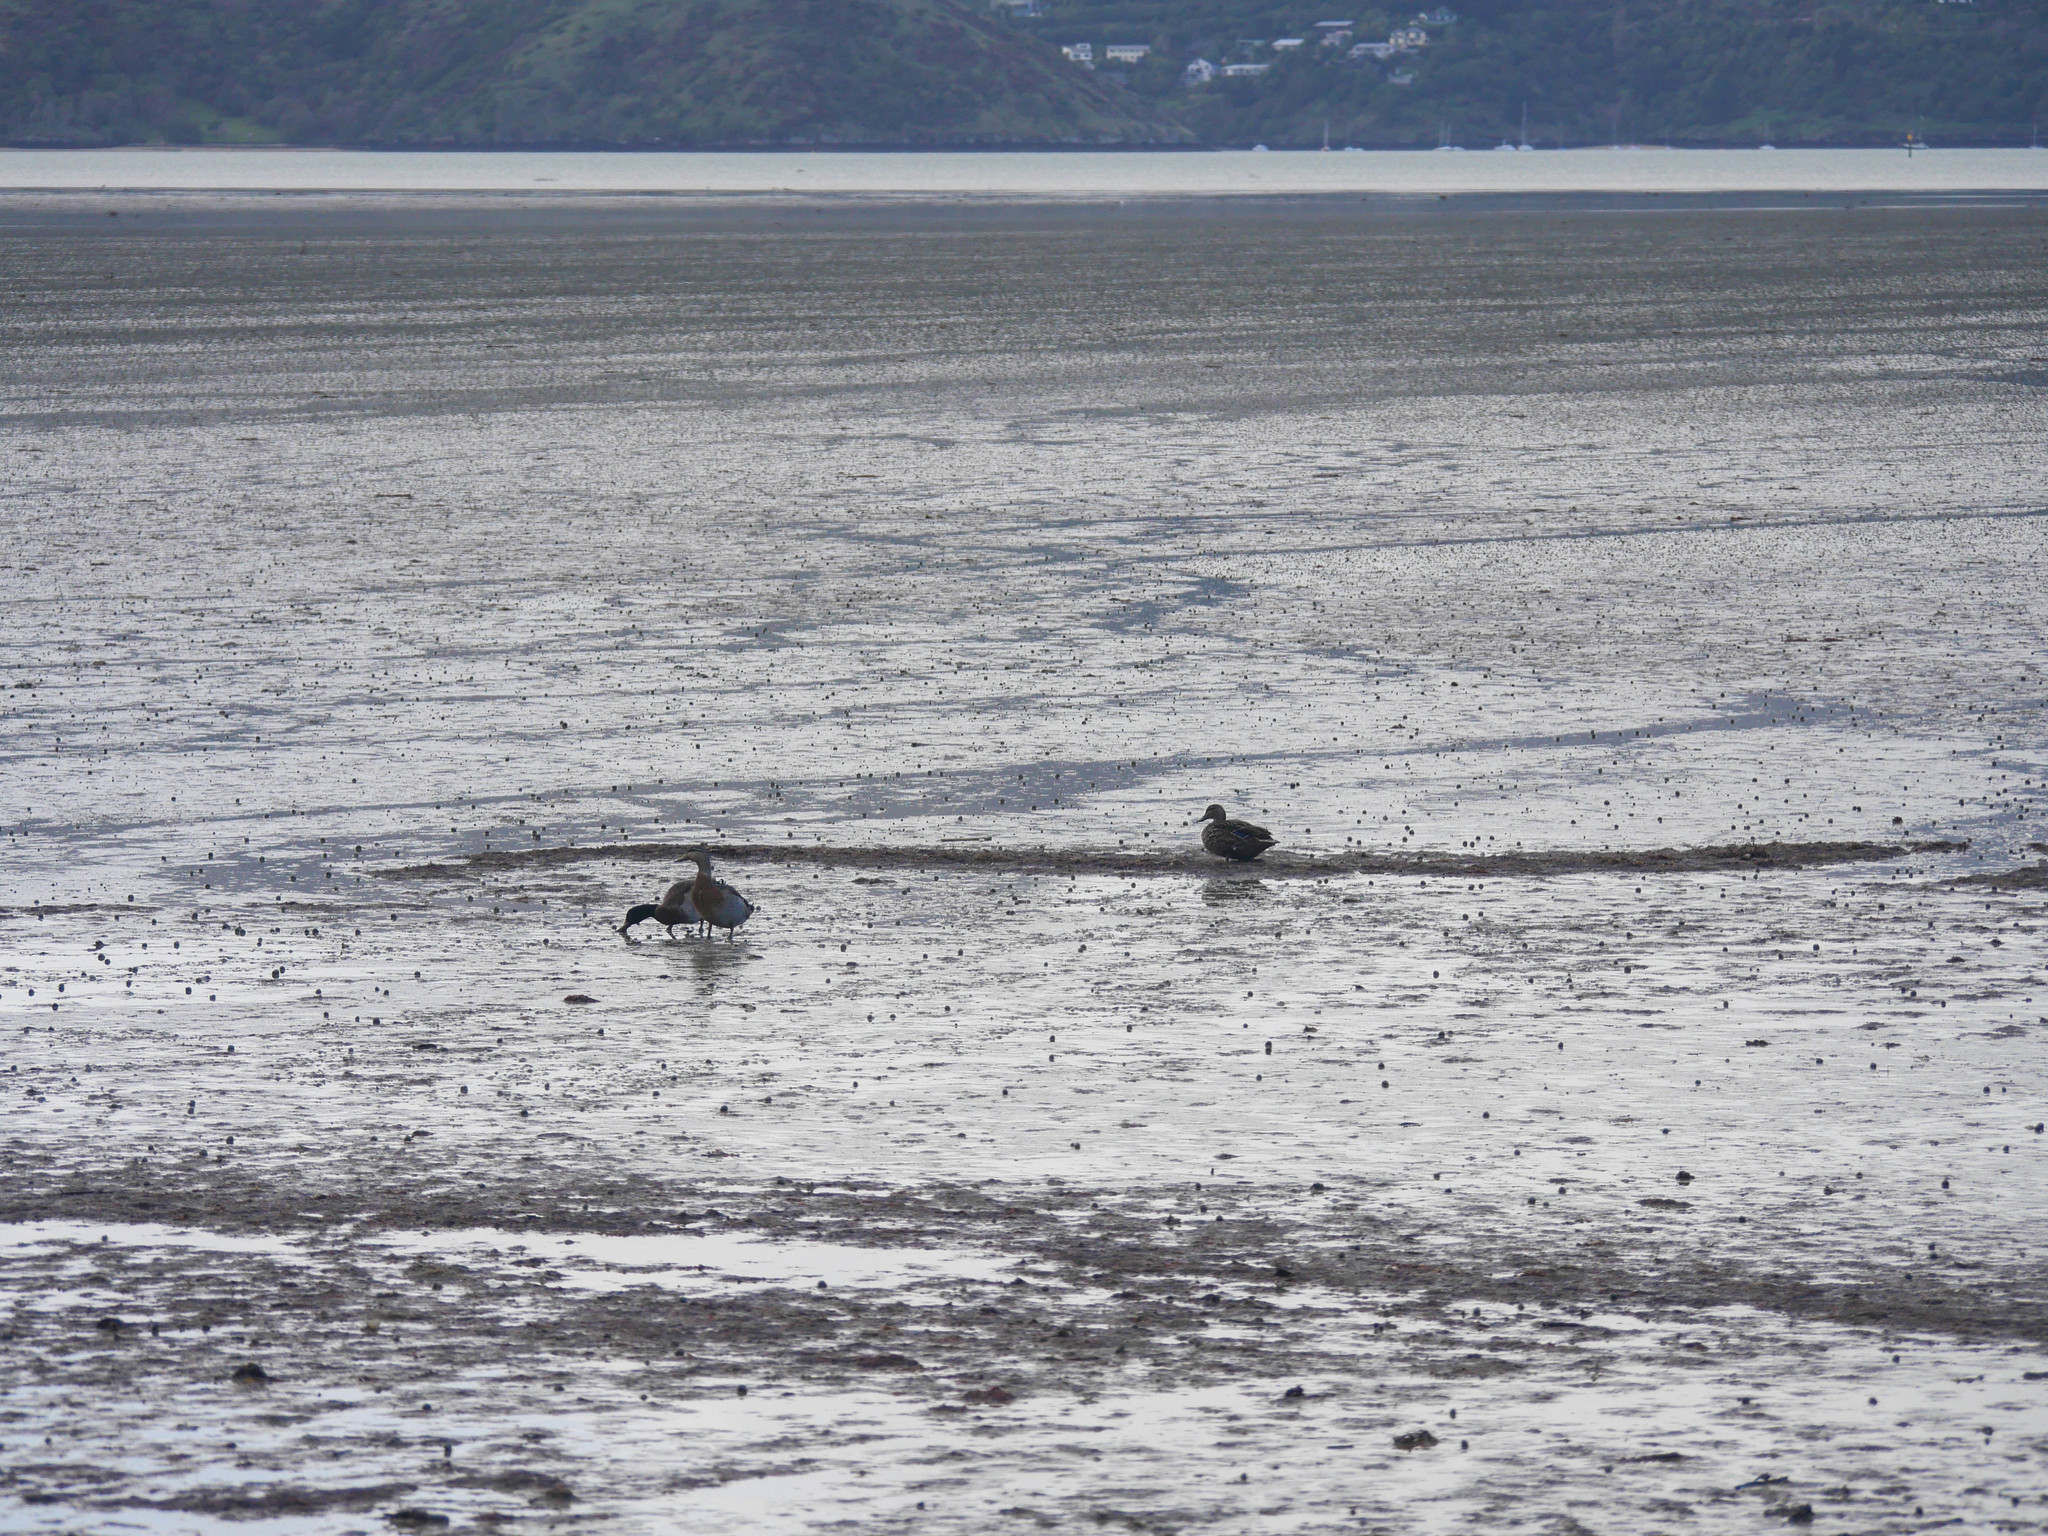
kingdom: Animalia
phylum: Chordata
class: Aves
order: Anseriformes
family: Anatidae
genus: Anas
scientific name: Anas platyrhynchos
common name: Mallard
